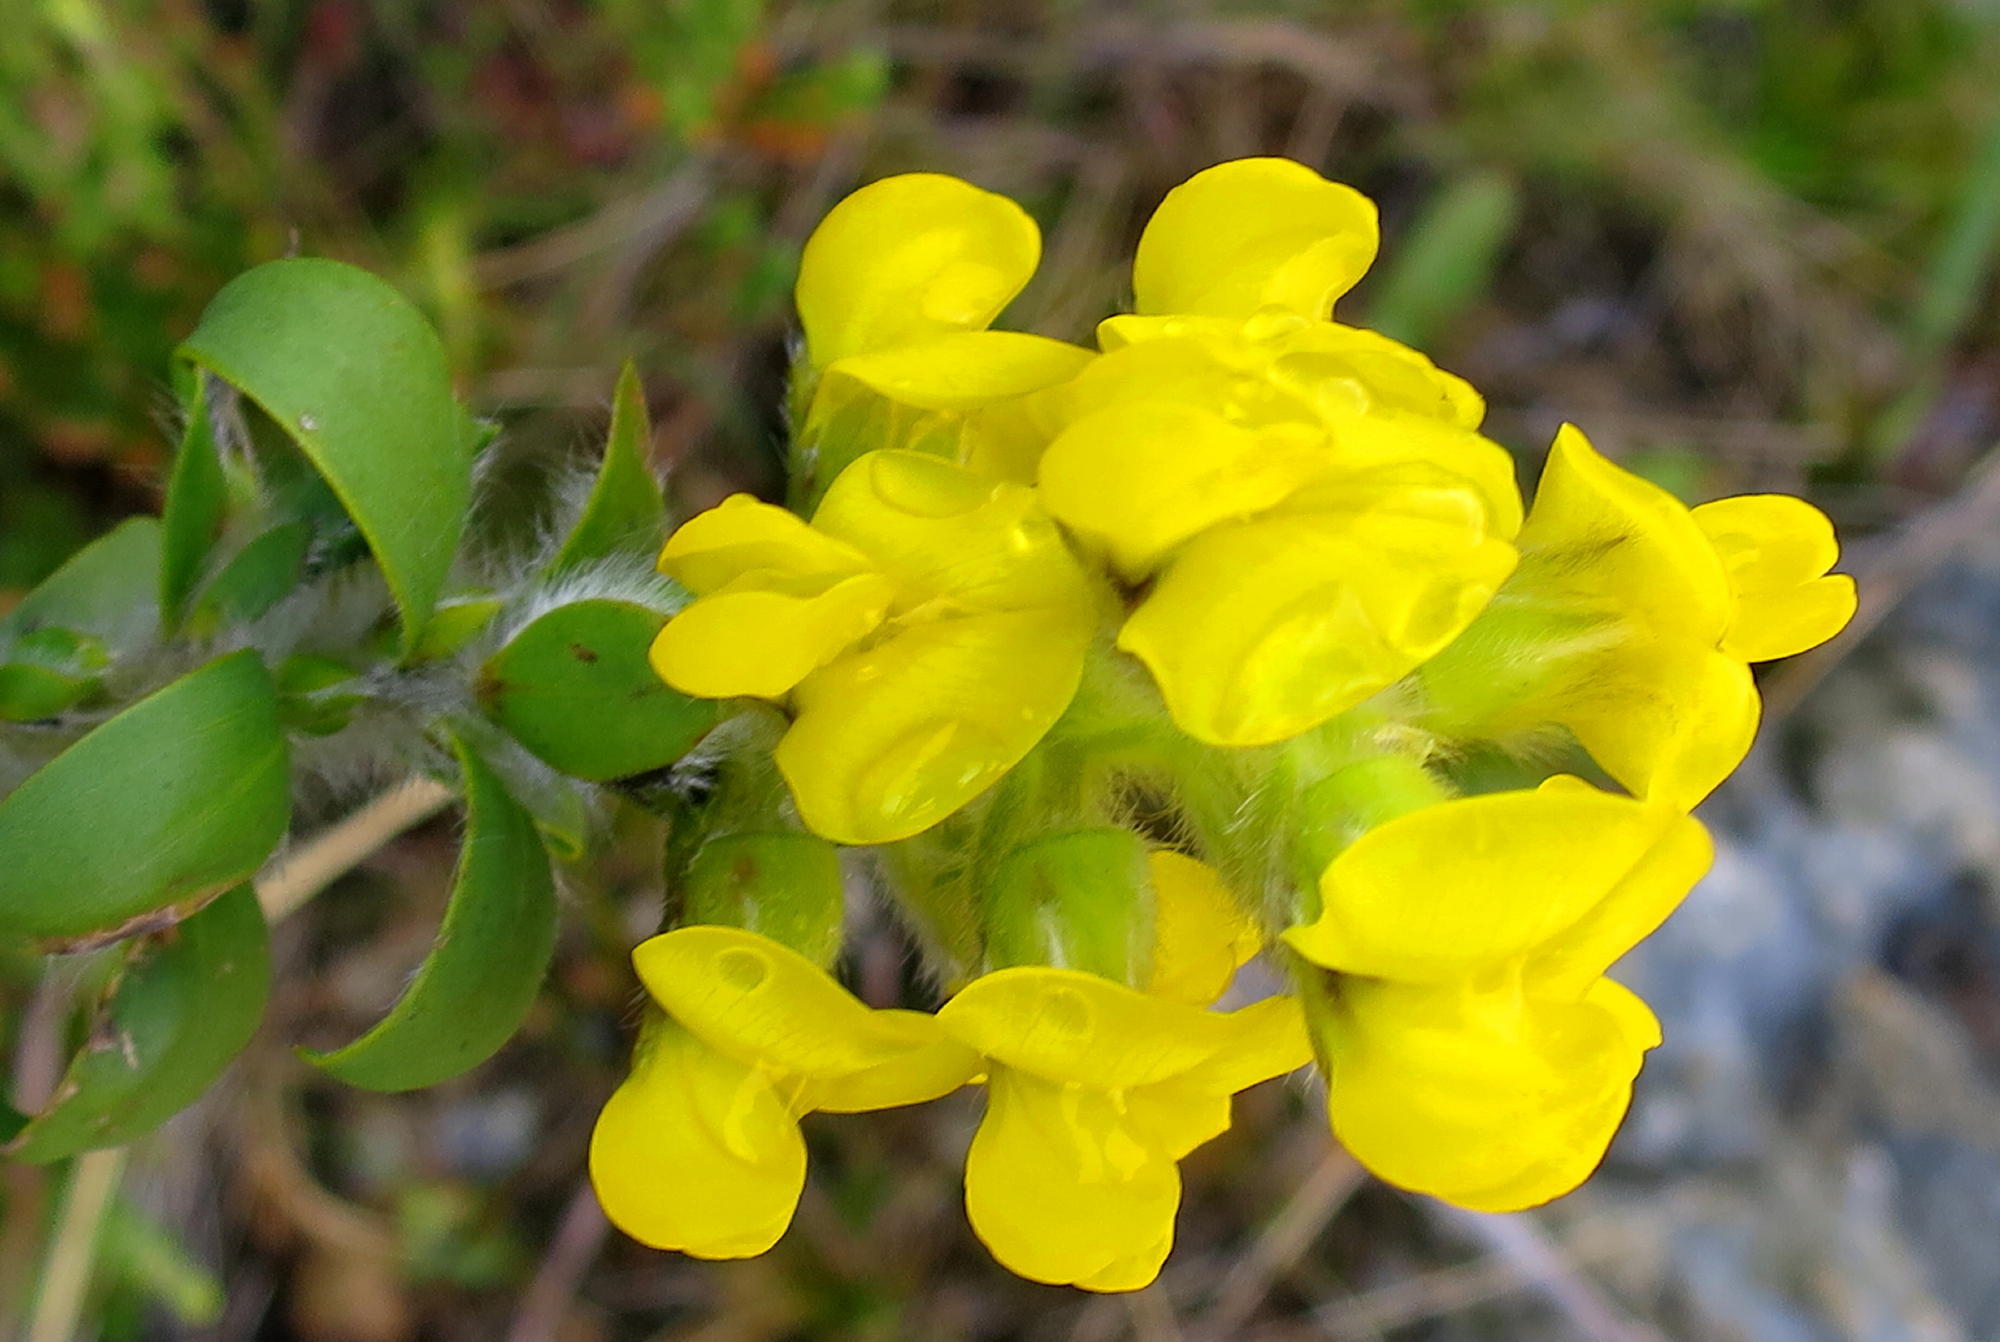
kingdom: Plantae
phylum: Tracheophyta
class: Magnoliopsida
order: Fabales
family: Fabaceae
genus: Liparia
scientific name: Liparia hirsuta
